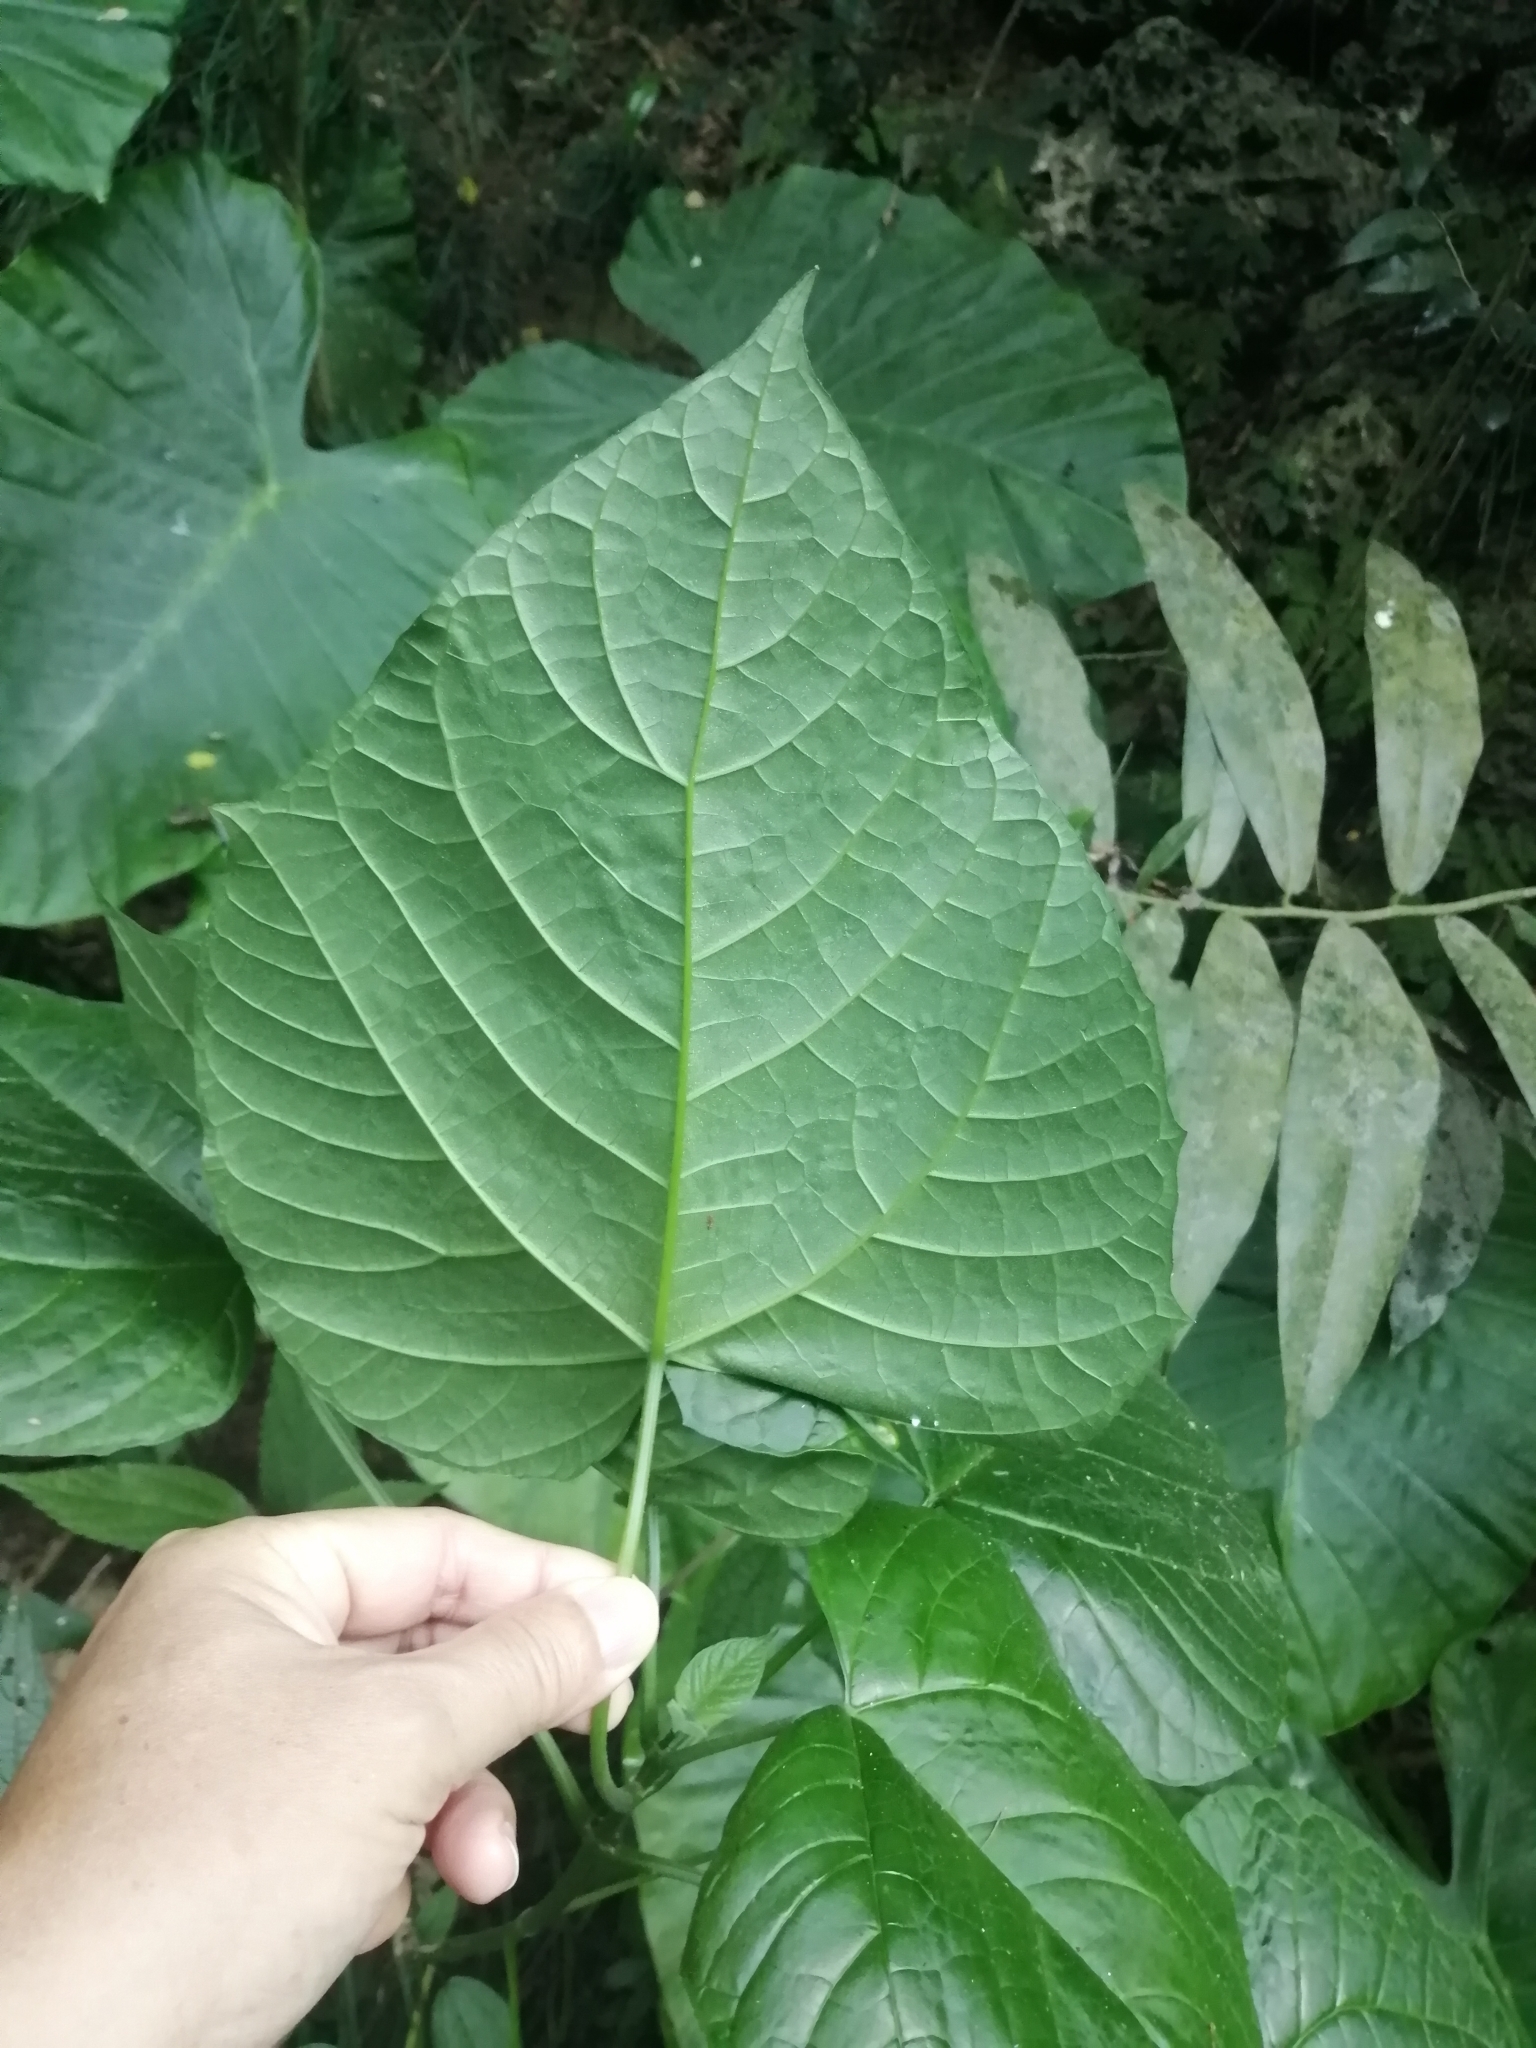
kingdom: Plantae
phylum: Tracheophyta
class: Magnoliopsida
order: Lamiales
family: Lamiaceae
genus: Clerodendrum
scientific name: Clerodendrum japonicum
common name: Japanese glorybower
